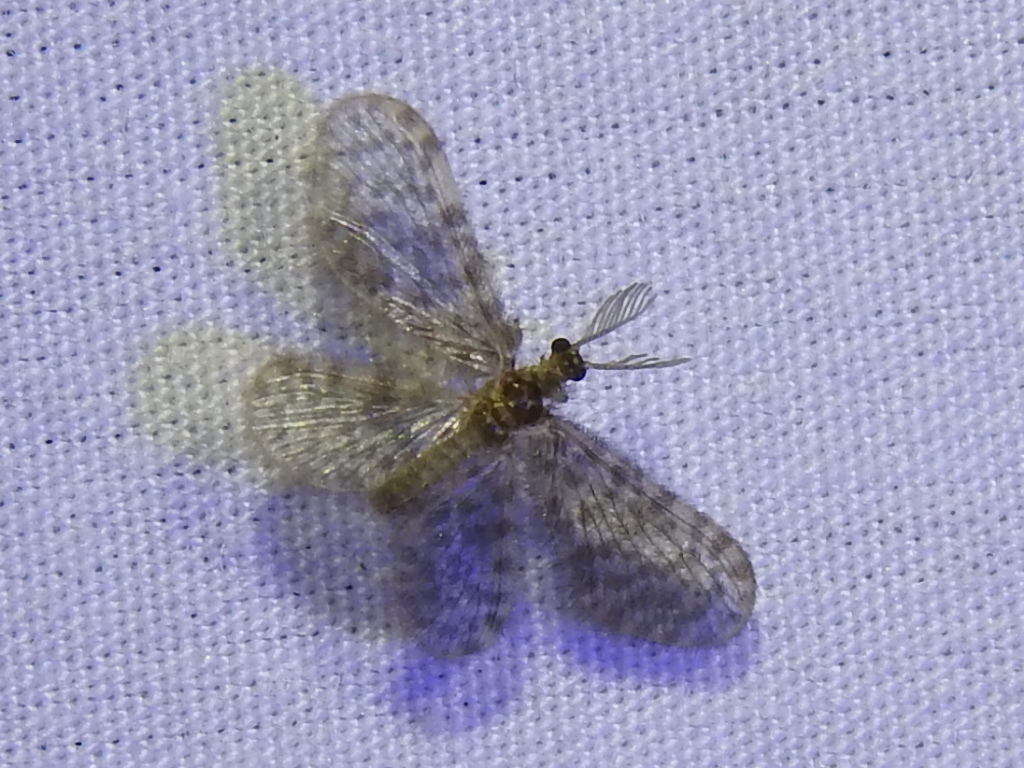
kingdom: Animalia
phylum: Arthropoda
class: Insecta
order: Neuroptera
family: Dilaridae
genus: Nallachius
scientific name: Nallachius americanus
